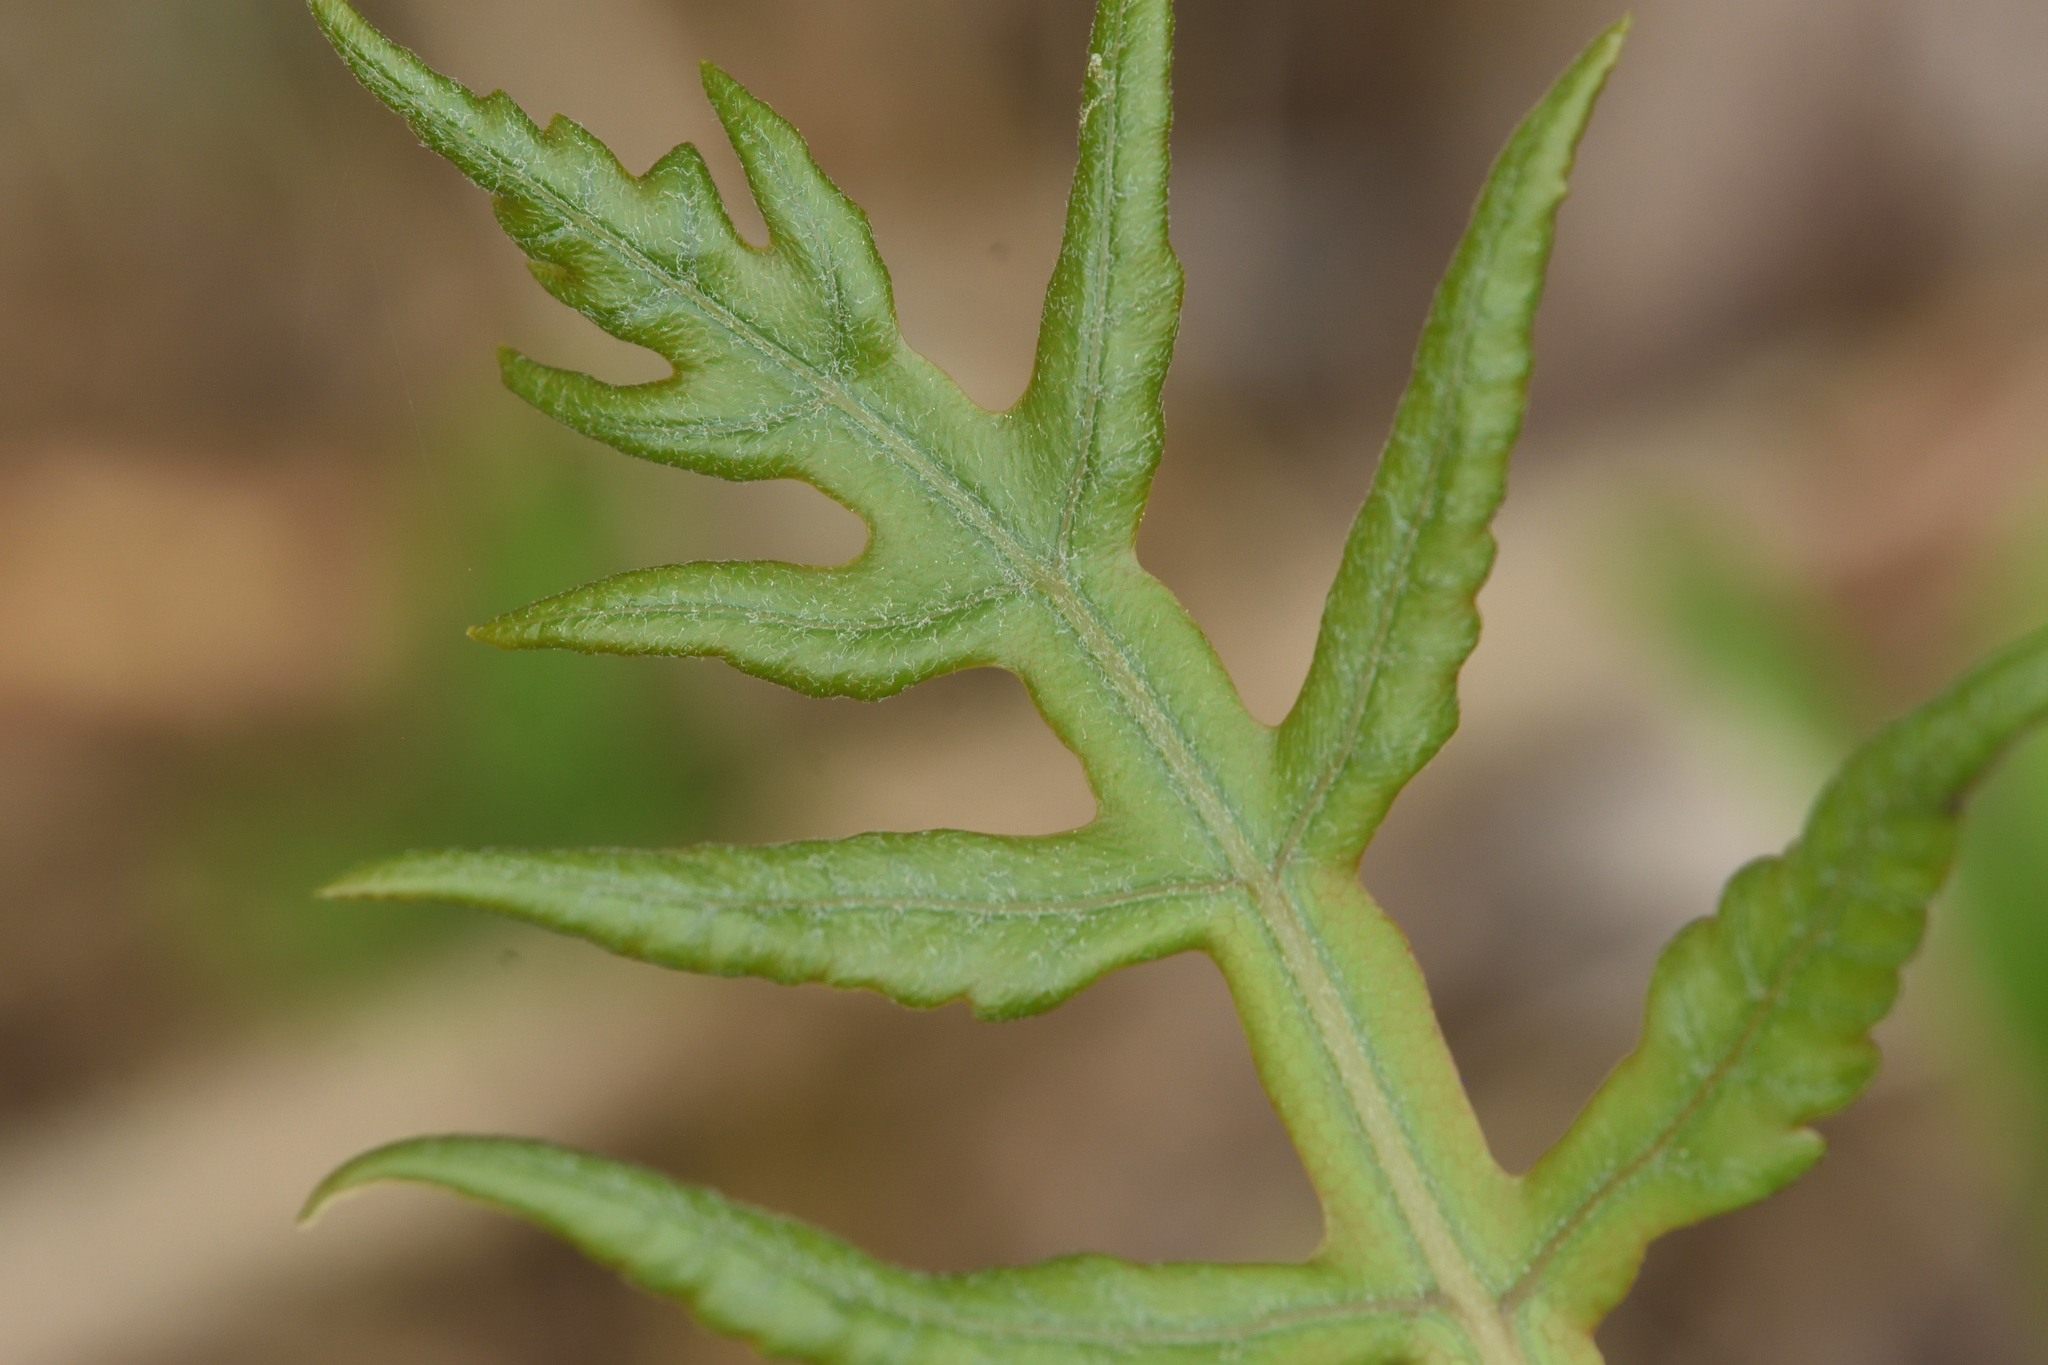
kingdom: Plantae
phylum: Tracheophyta
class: Polypodiopsida
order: Polypodiales
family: Onocleaceae
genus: Onoclea
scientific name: Onoclea sensibilis
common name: Sensitive fern
